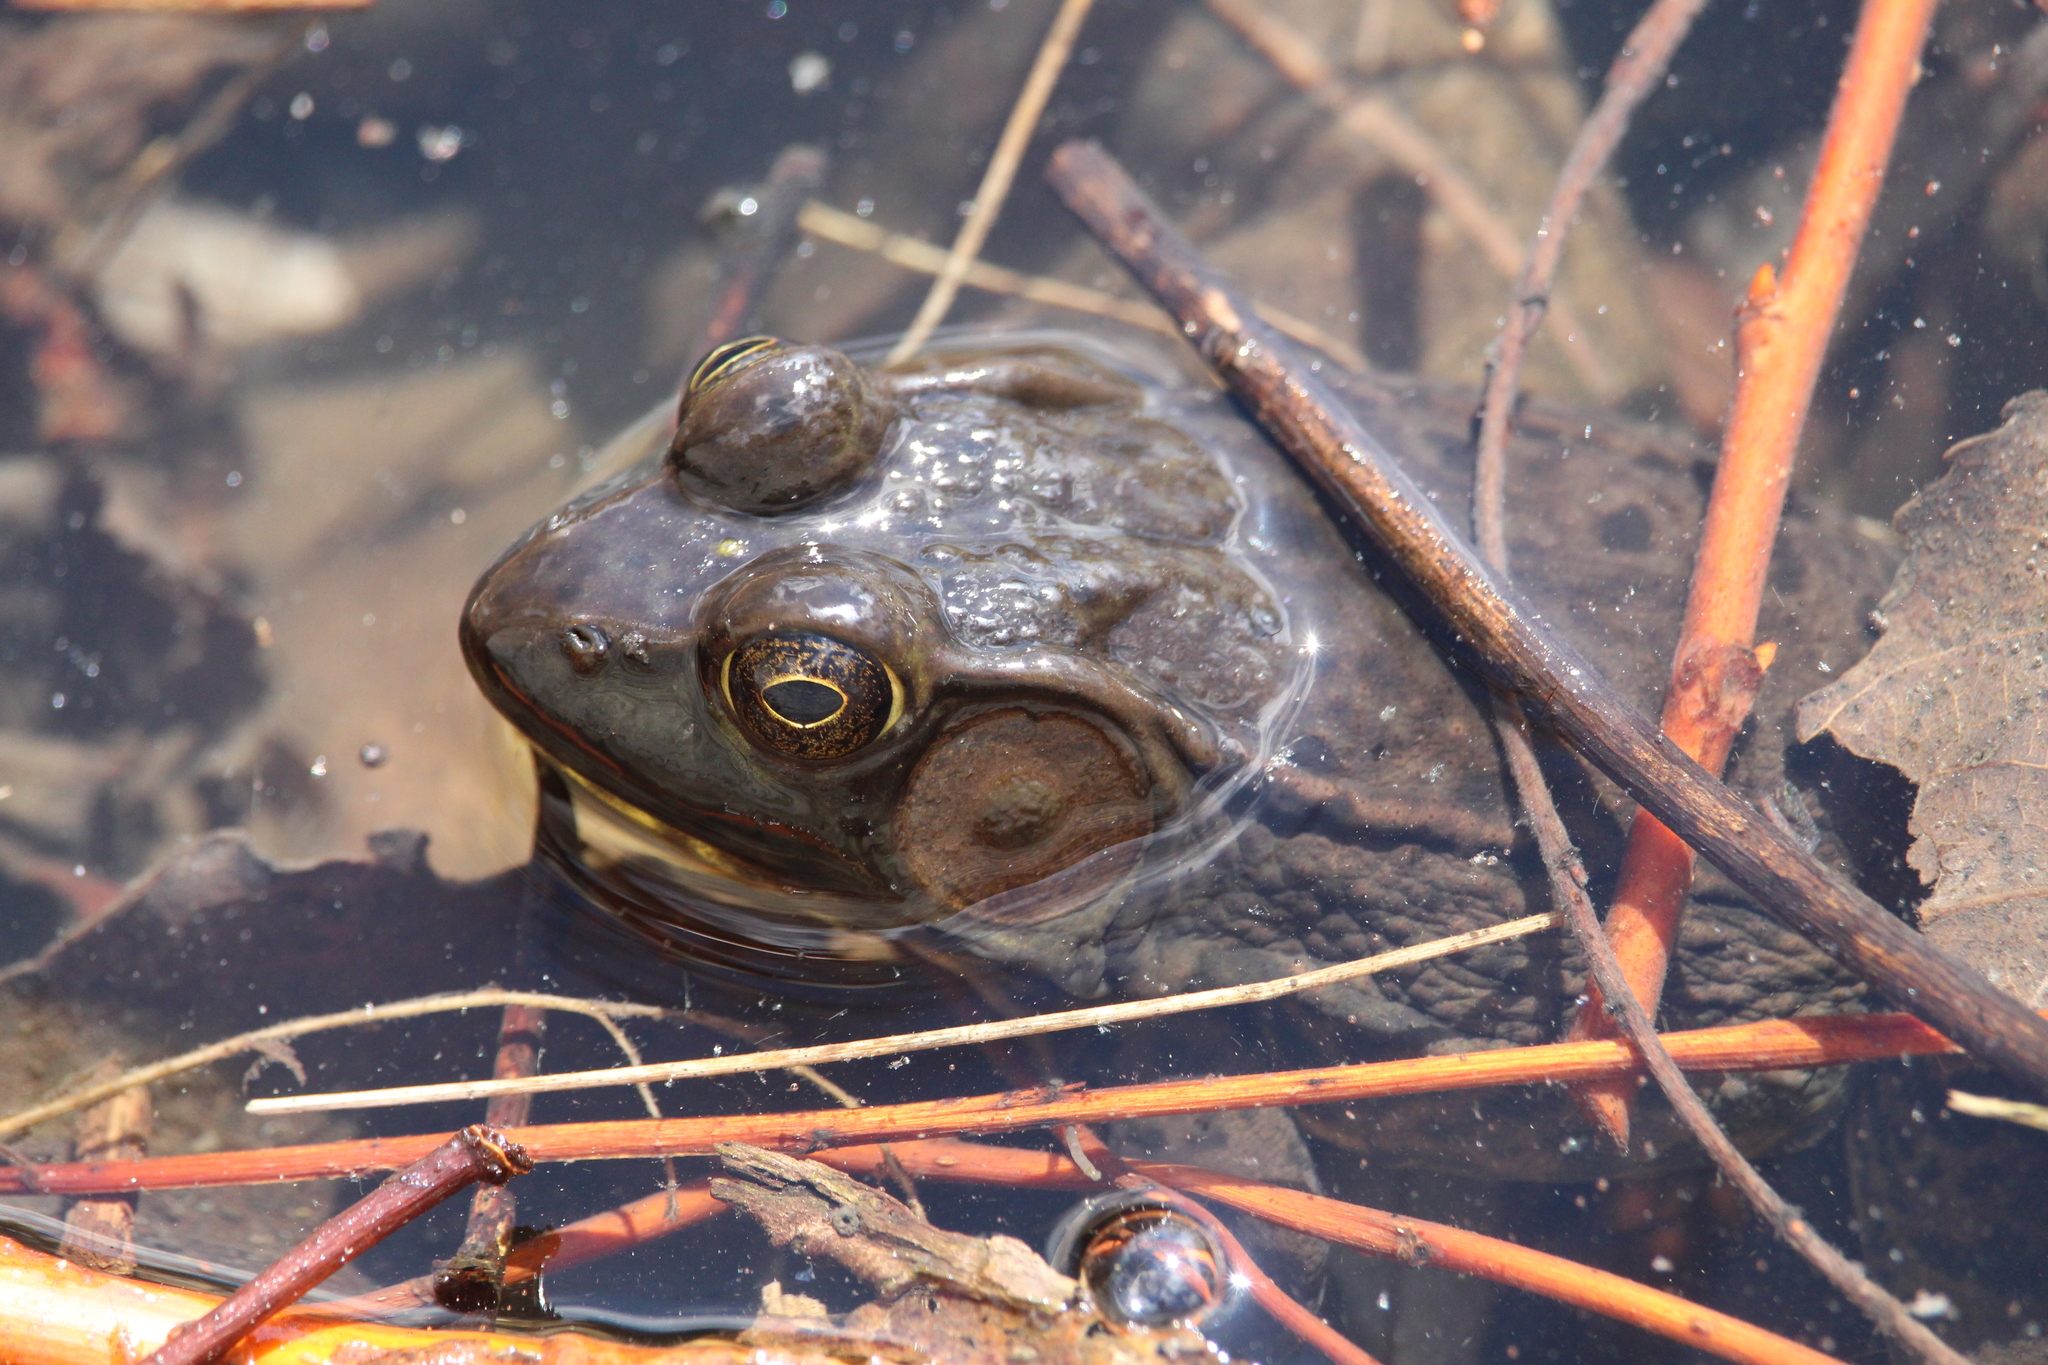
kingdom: Animalia
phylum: Chordata
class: Amphibia
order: Anura
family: Ranidae
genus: Lithobates
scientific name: Lithobates clamitans
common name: Green frog
